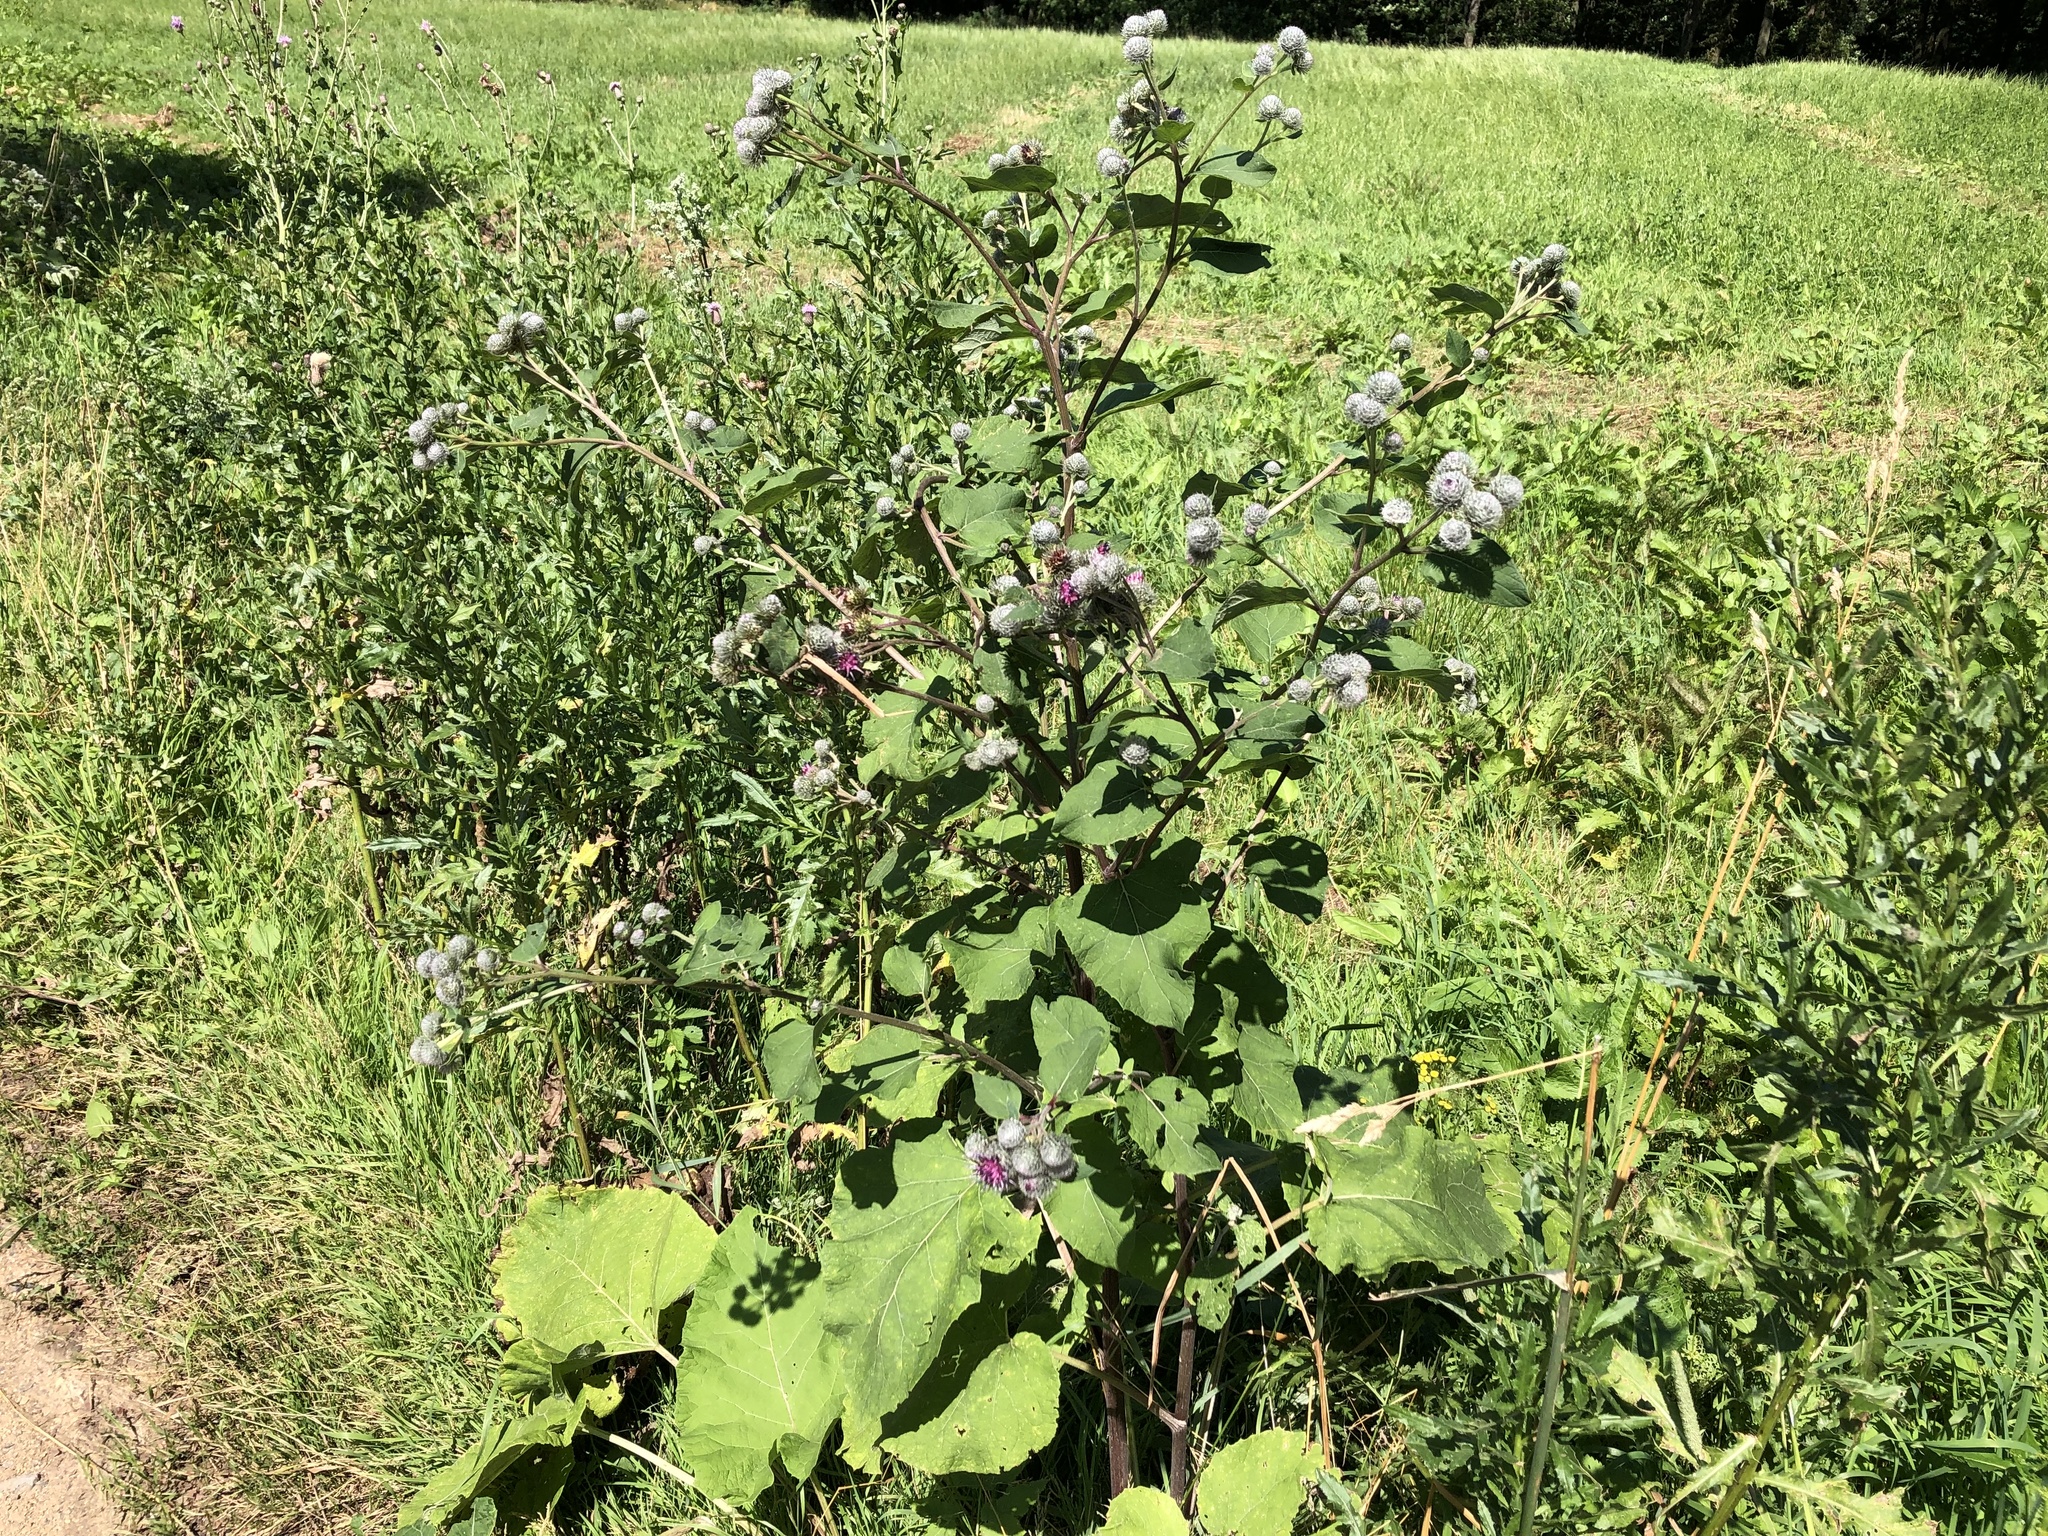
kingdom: Plantae
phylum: Tracheophyta
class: Magnoliopsida
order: Asterales
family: Asteraceae
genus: Arctium
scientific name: Arctium tomentosum
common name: Woolly burdock
